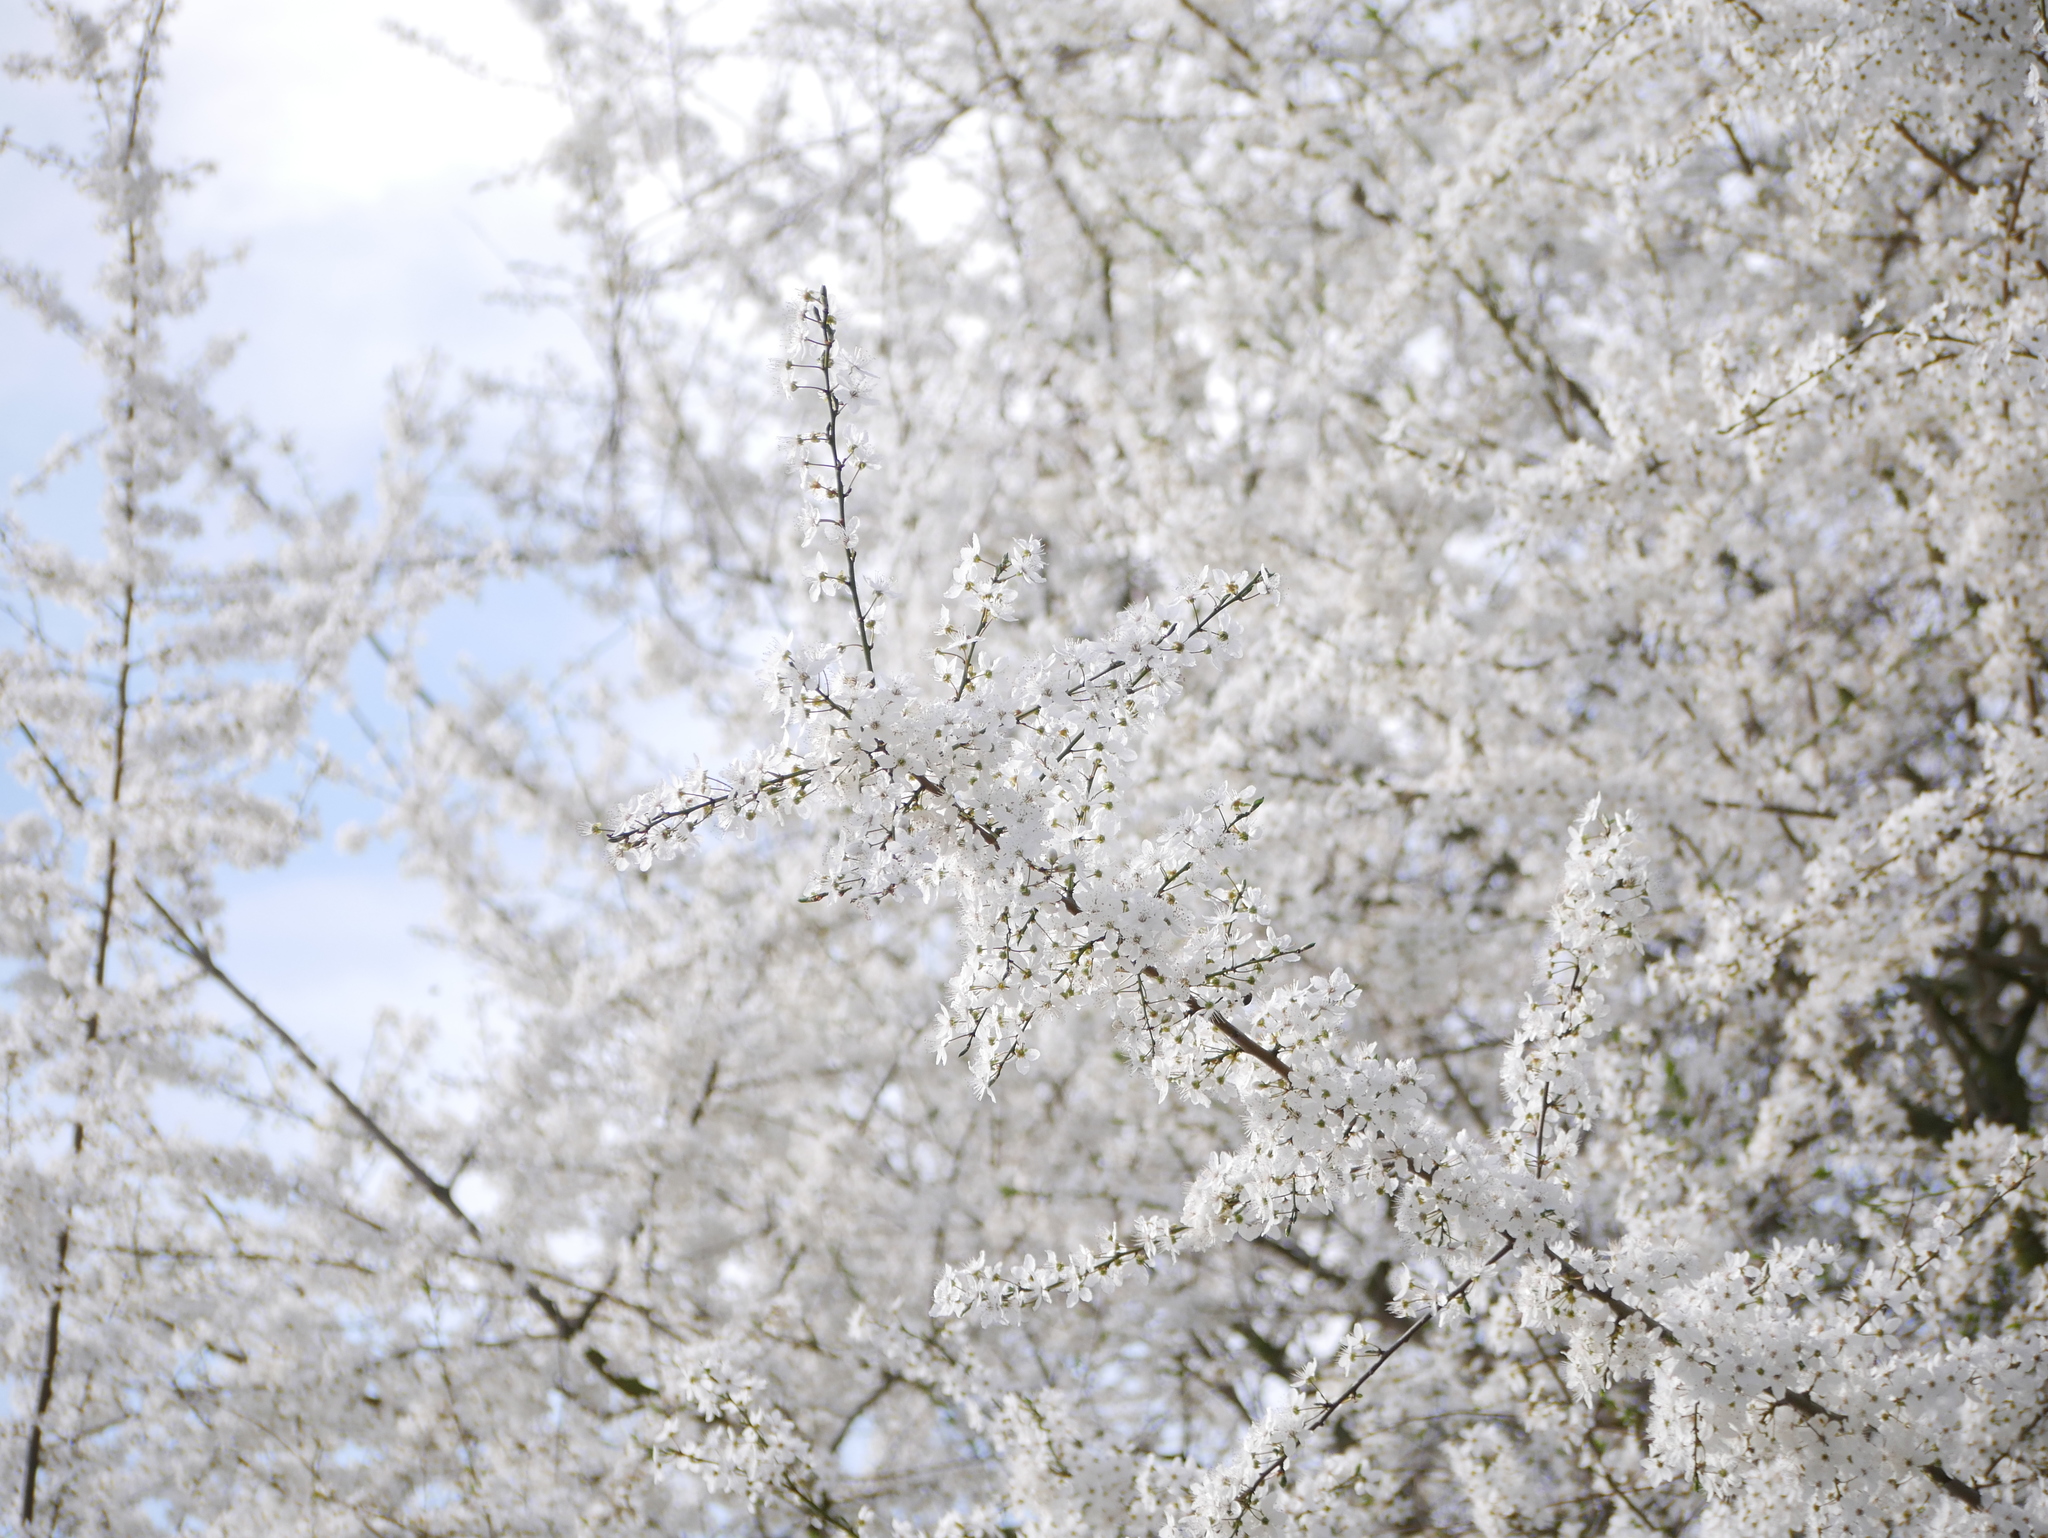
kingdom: Plantae
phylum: Tracheophyta
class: Magnoliopsida
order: Rosales
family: Rosaceae
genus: Prunus
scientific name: Prunus cerasifera
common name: Cherry plum
